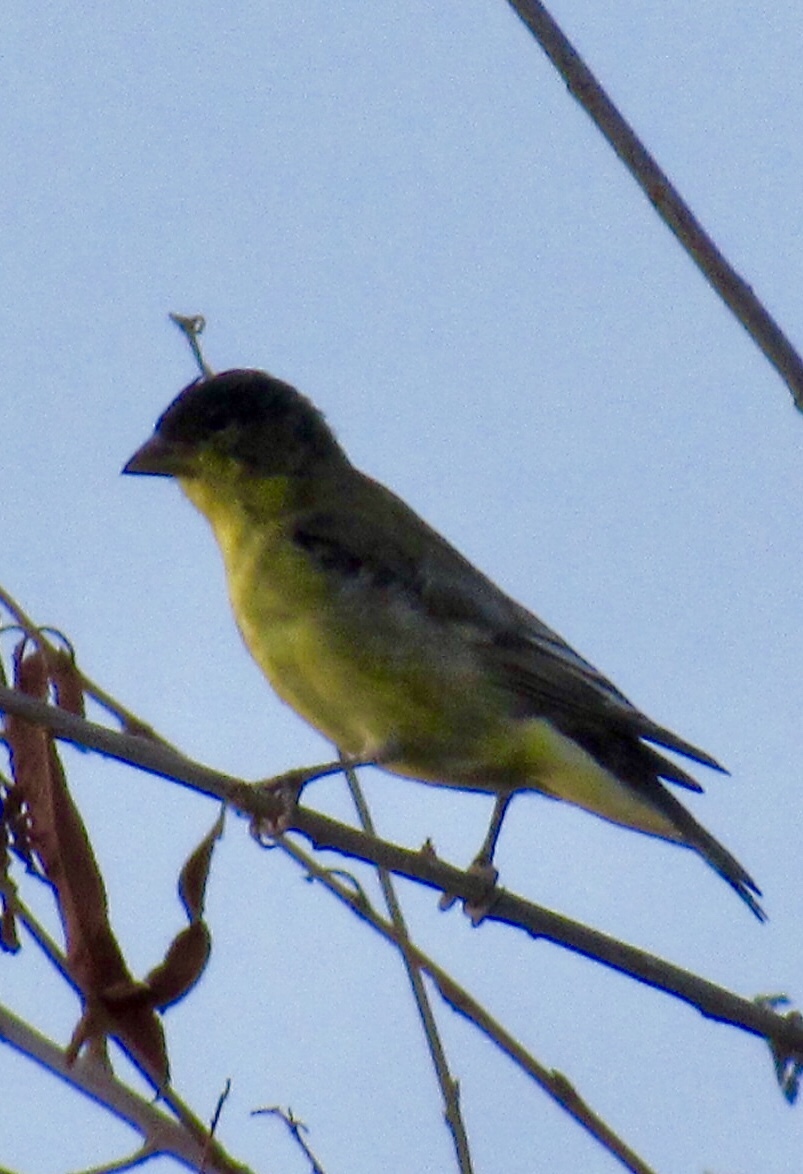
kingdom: Animalia
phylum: Chordata
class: Aves
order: Passeriformes
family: Fringillidae
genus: Spinus
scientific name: Spinus psaltria
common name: Lesser goldfinch
